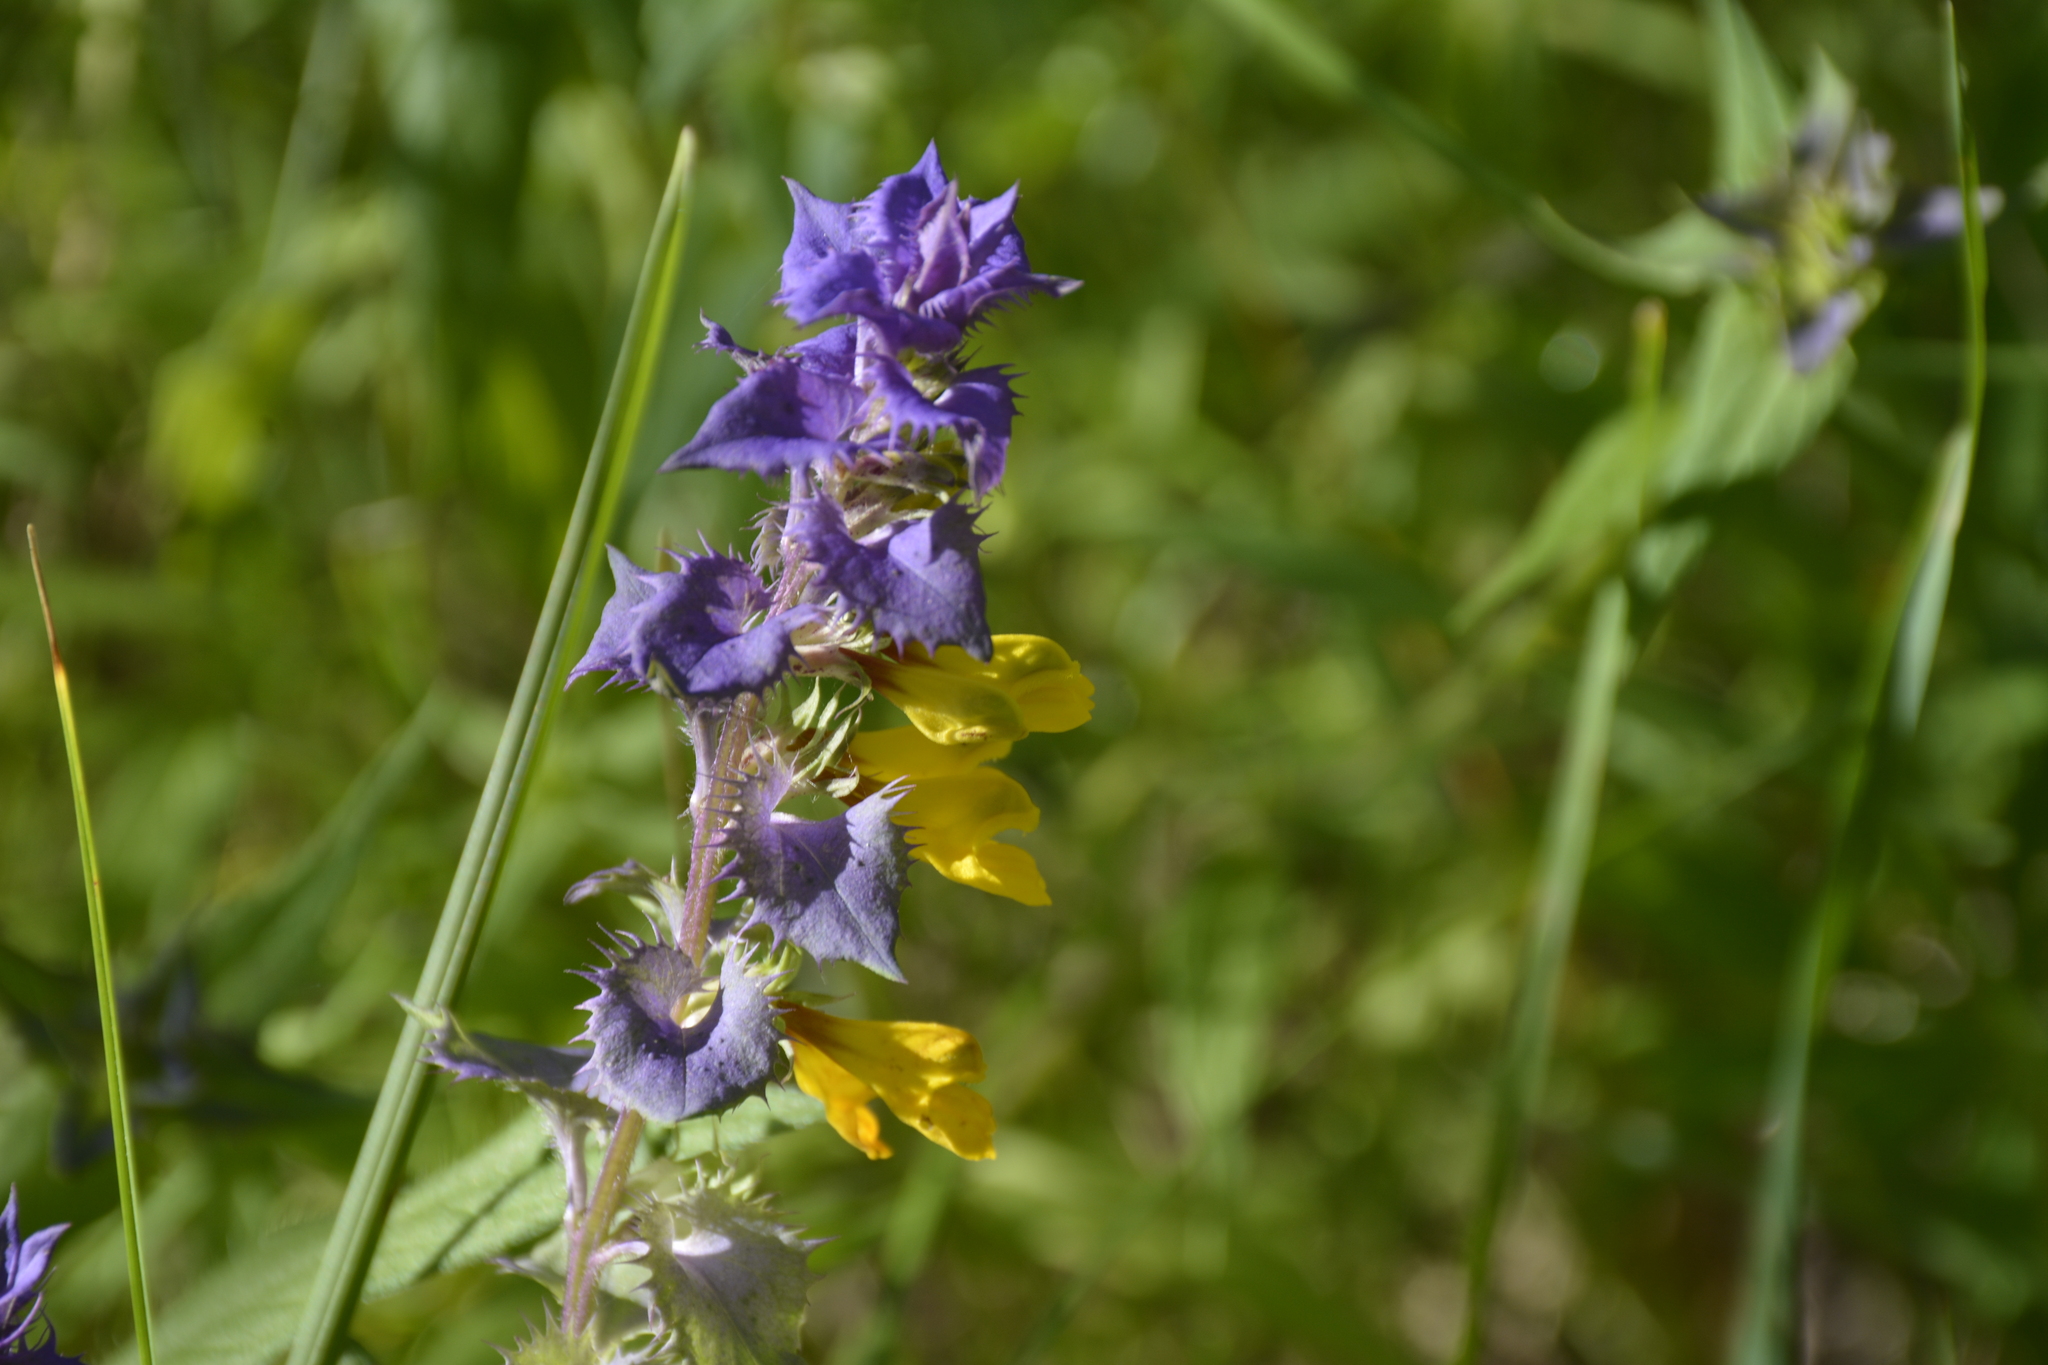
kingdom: Plantae
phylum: Tracheophyta
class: Magnoliopsida
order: Lamiales
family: Orobanchaceae
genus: Melampyrum
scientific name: Melampyrum nemorosum
